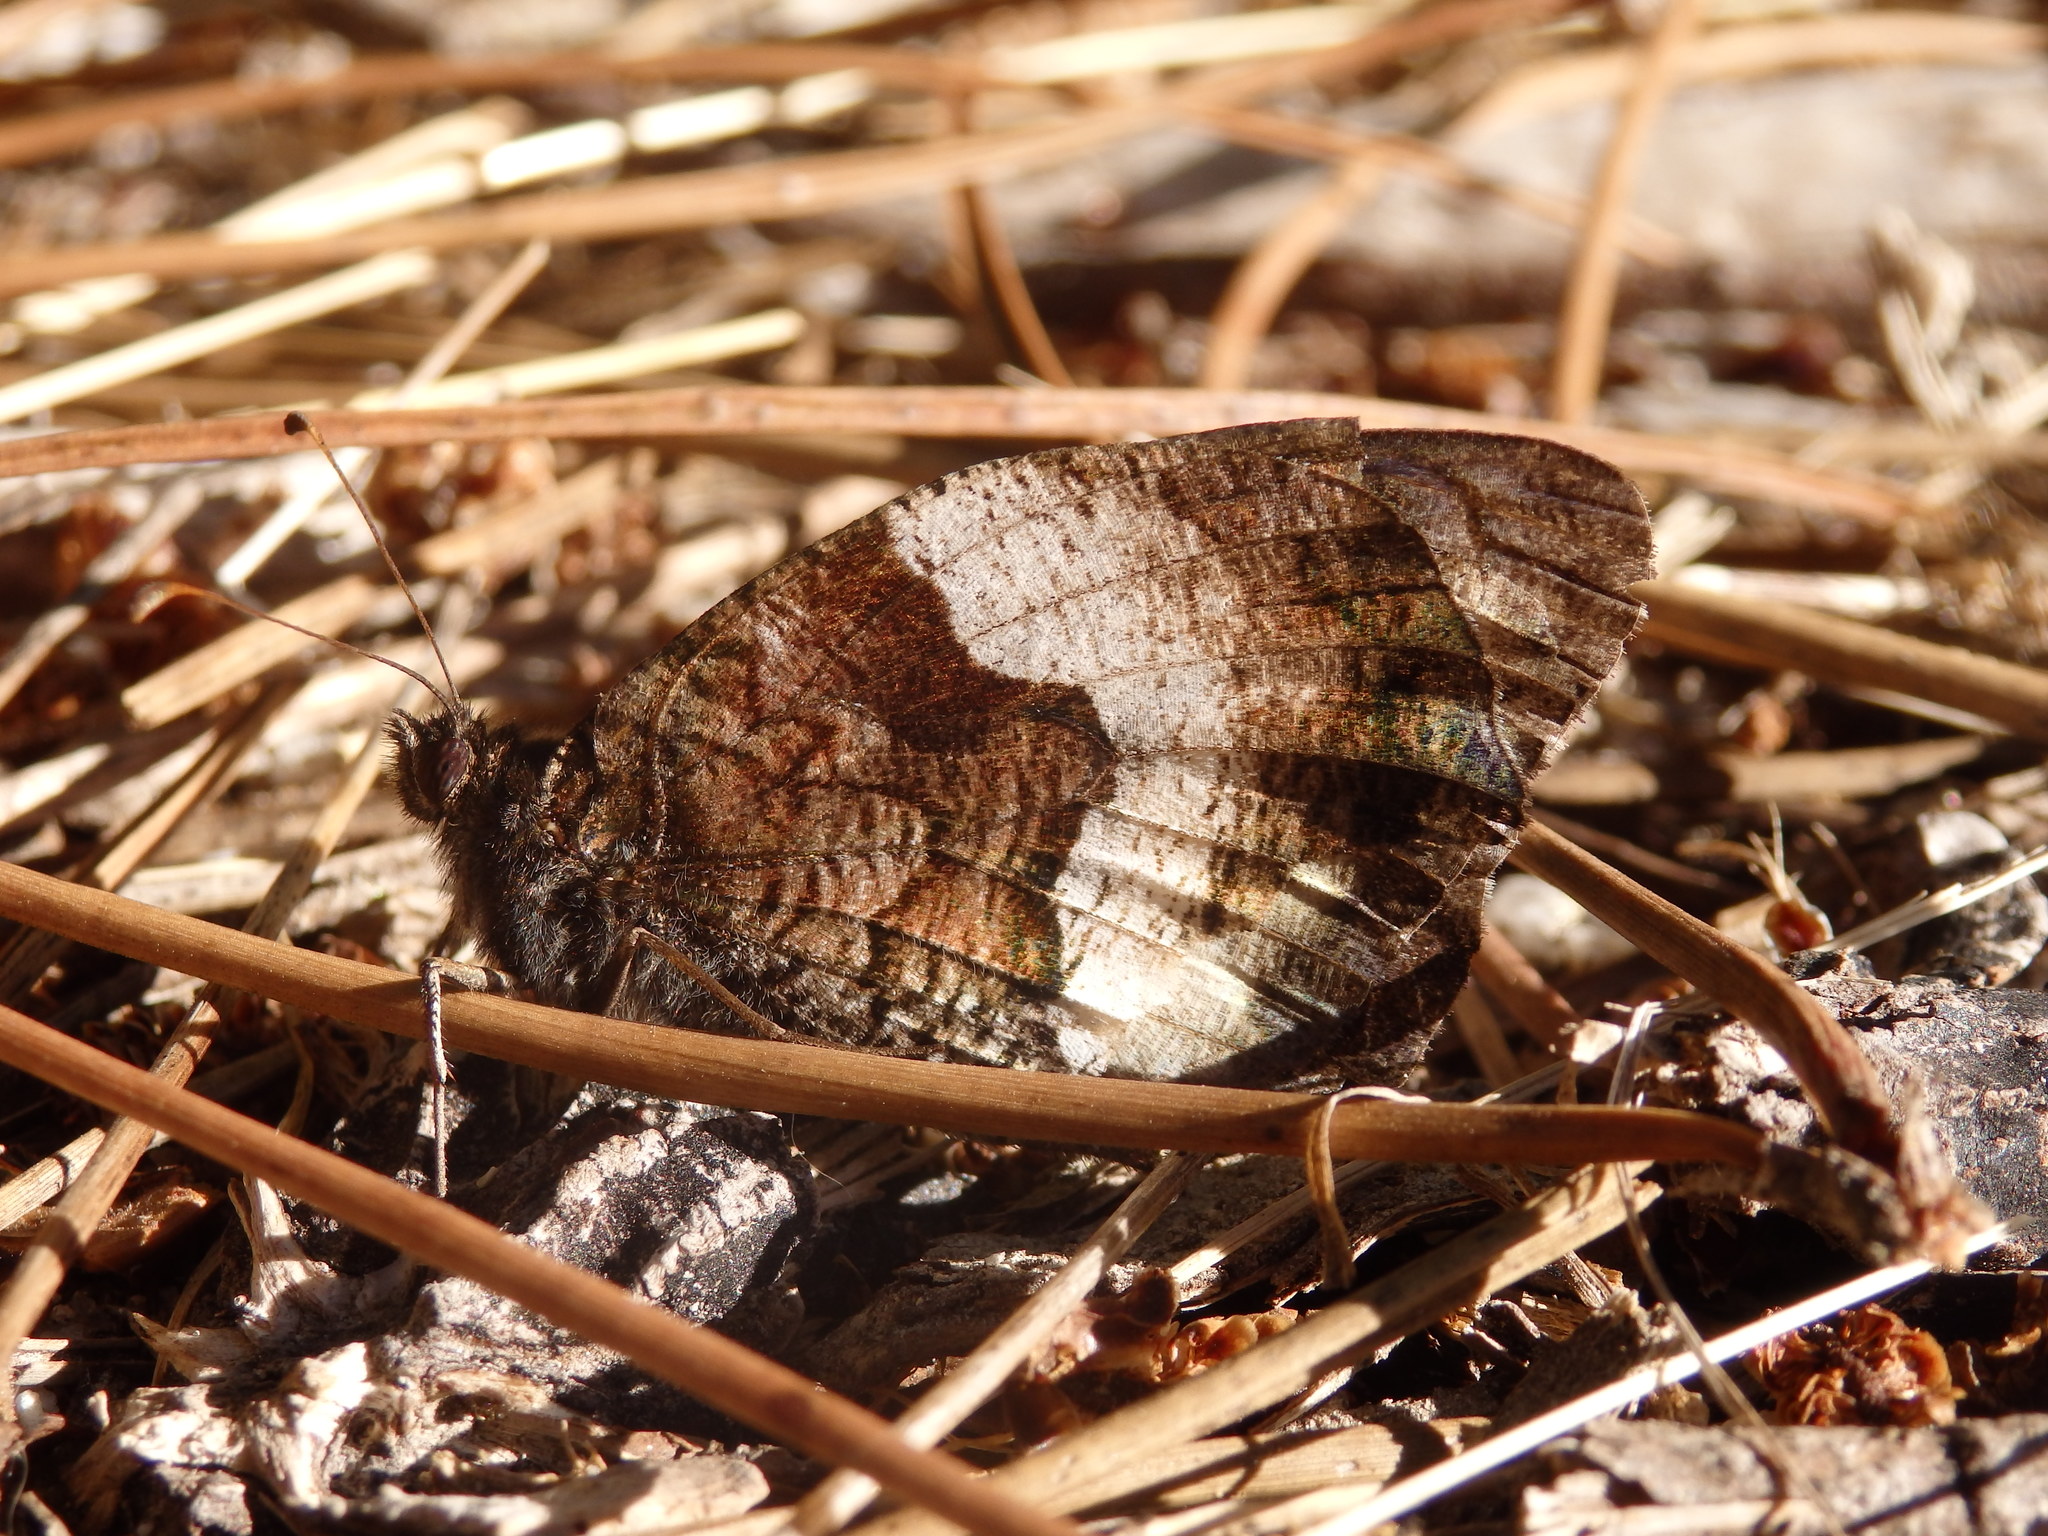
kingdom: Animalia
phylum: Arthropoda
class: Insecta
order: Lepidoptera
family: Nymphalidae
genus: Hipparchia
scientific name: Hipparchia hermione
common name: Rock grayling
